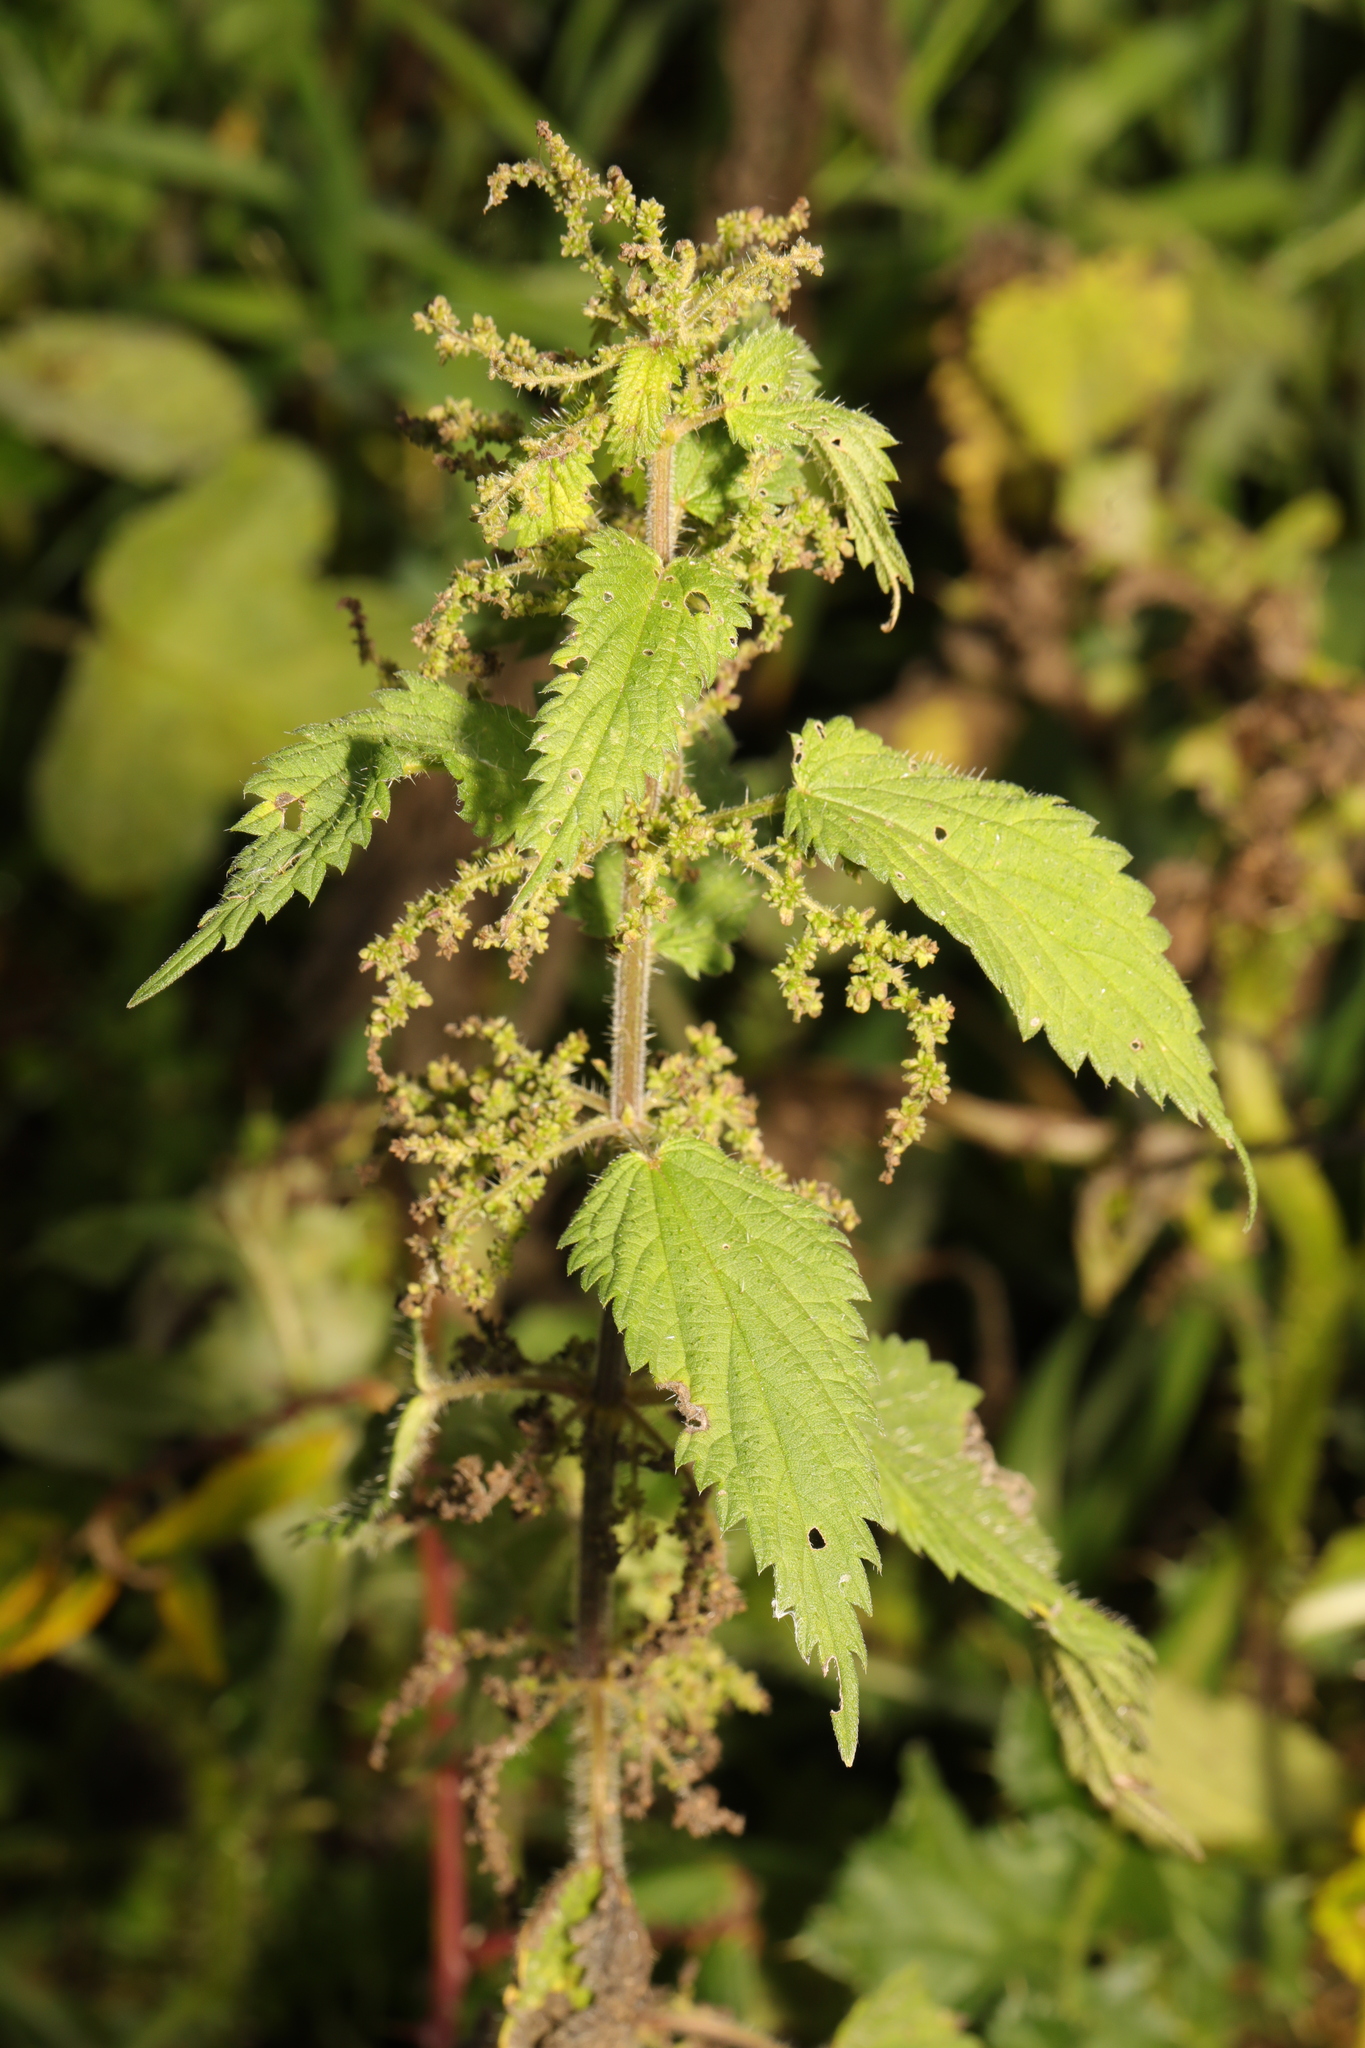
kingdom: Plantae
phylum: Tracheophyta
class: Magnoliopsida
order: Rosales
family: Urticaceae
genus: Urtica
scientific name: Urtica dioica
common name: Common nettle
